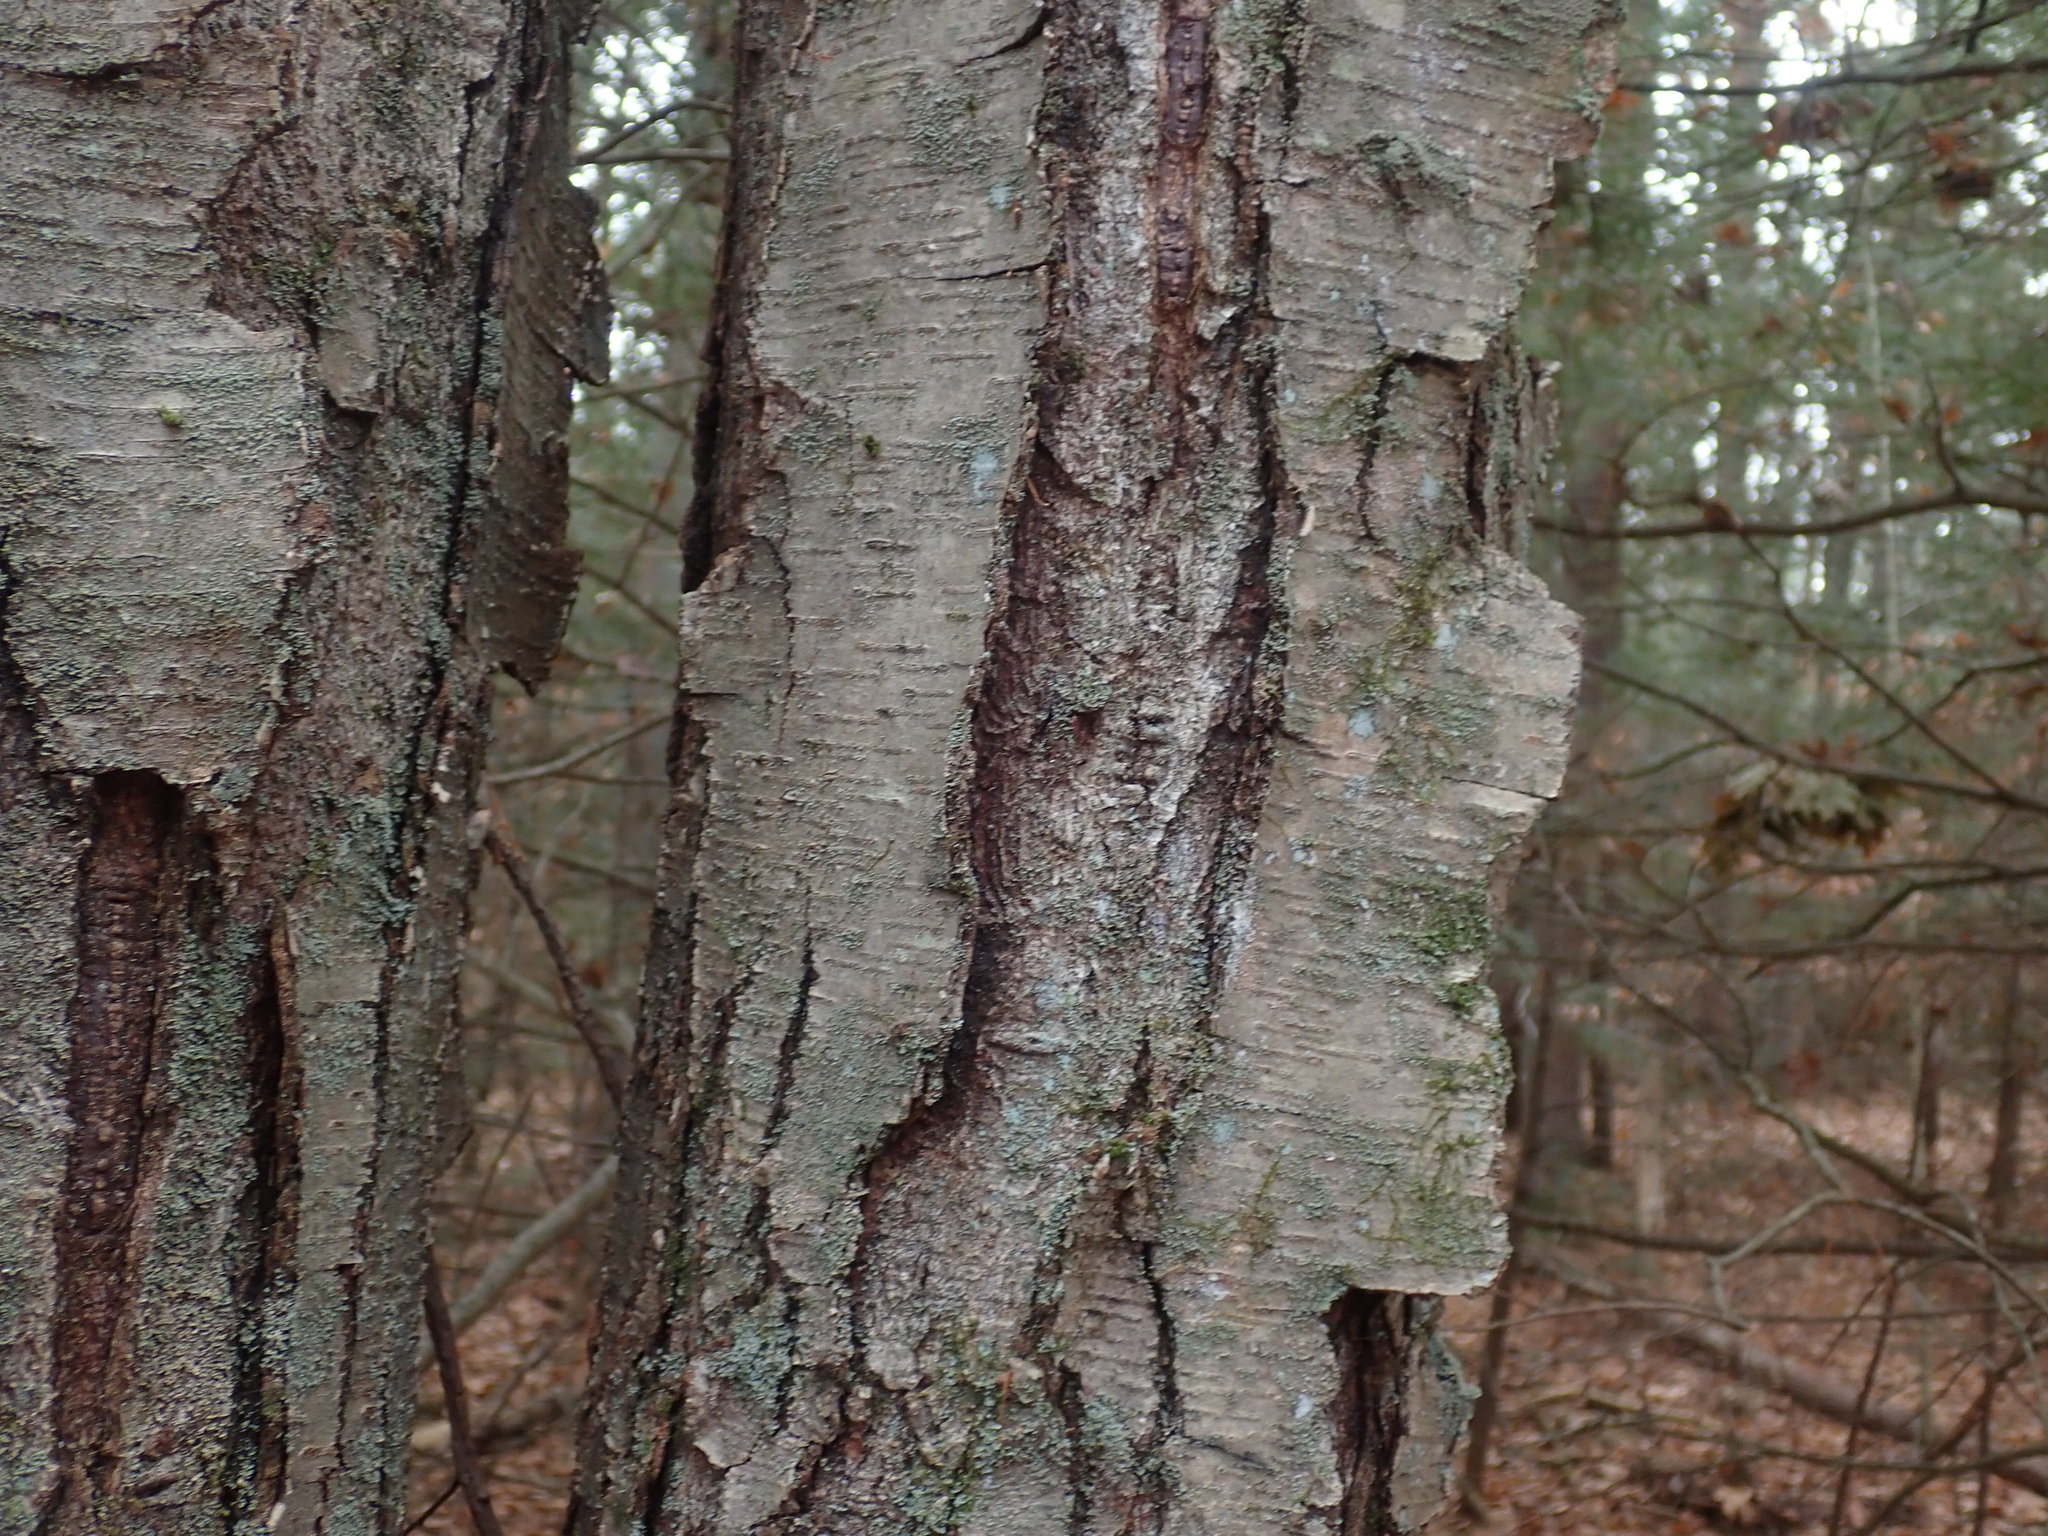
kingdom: Plantae
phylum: Tracheophyta
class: Magnoliopsida
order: Fagales
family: Betulaceae
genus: Betula
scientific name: Betula lenta
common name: Black birch
